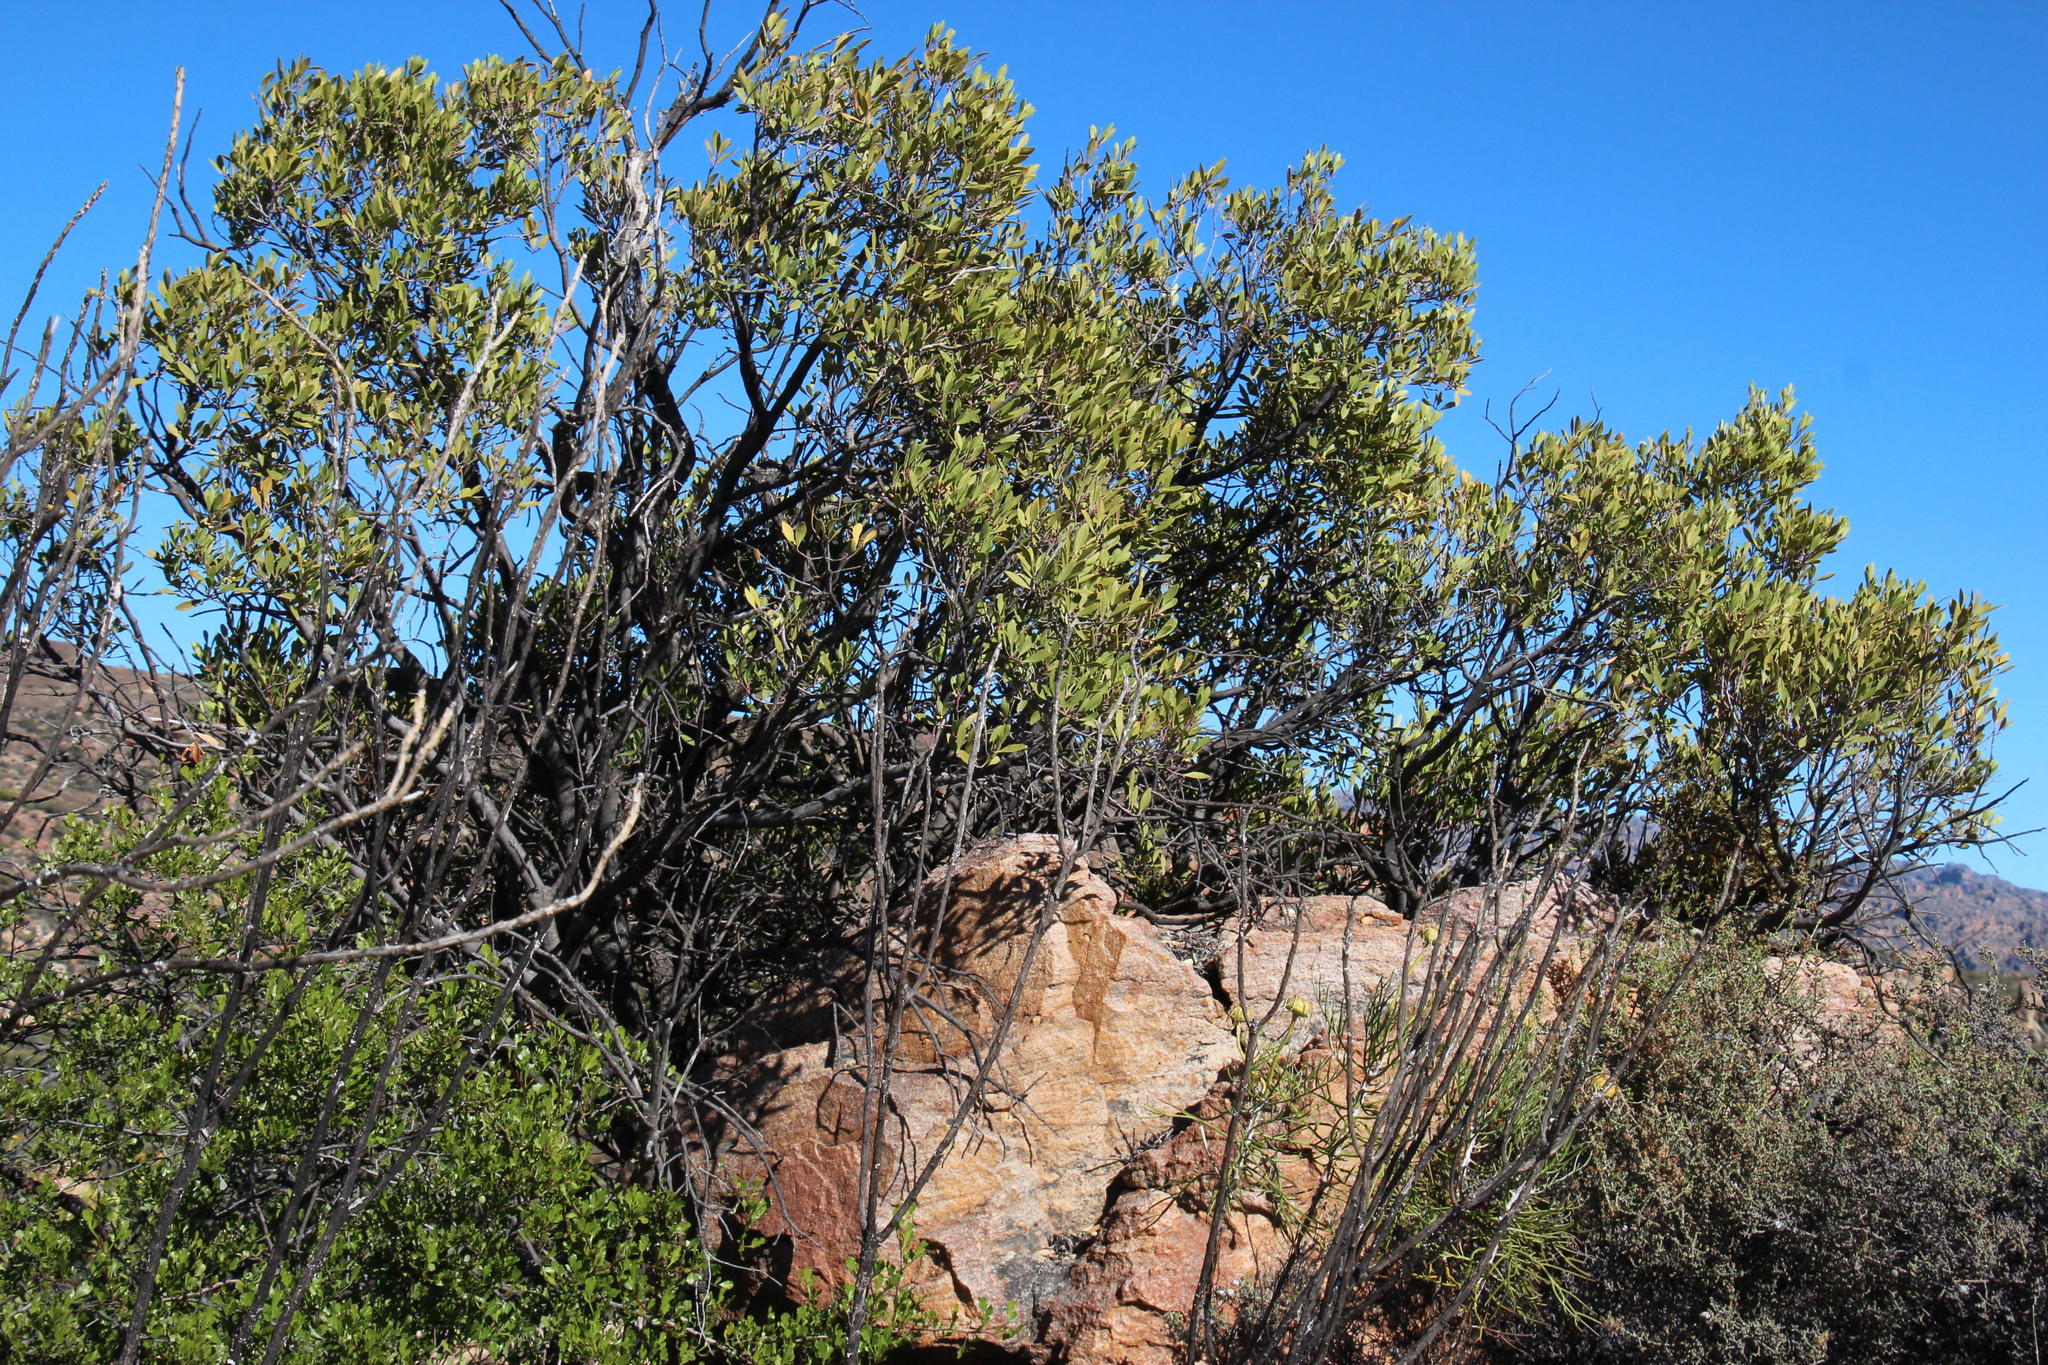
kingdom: Plantae
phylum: Tracheophyta
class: Magnoliopsida
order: Celastrales
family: Celastraceae
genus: Gymnosporia
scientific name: Gymnosporia laurina
